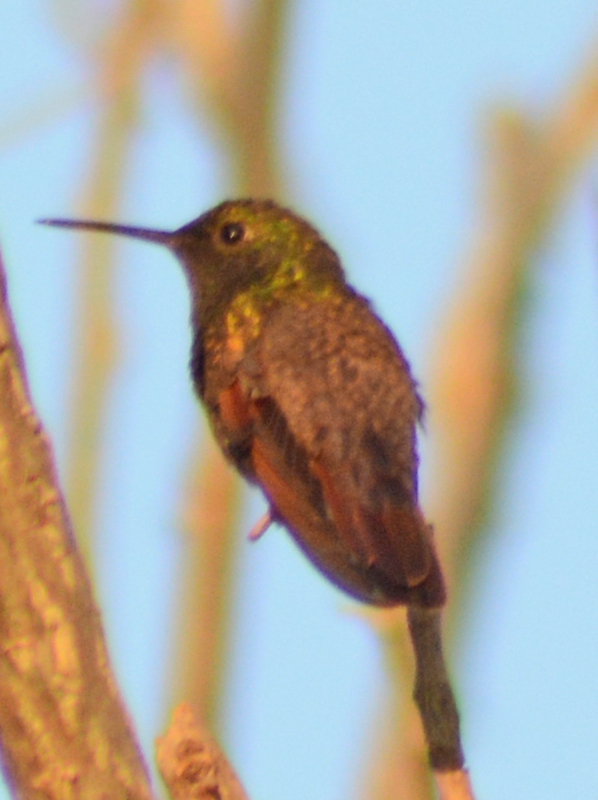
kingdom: Animalia
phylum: Chordata
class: Aves
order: Apodiformes
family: Trochilidae
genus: Saucerottia
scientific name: Saucerottia beryllina
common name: Berylline hummingbird
